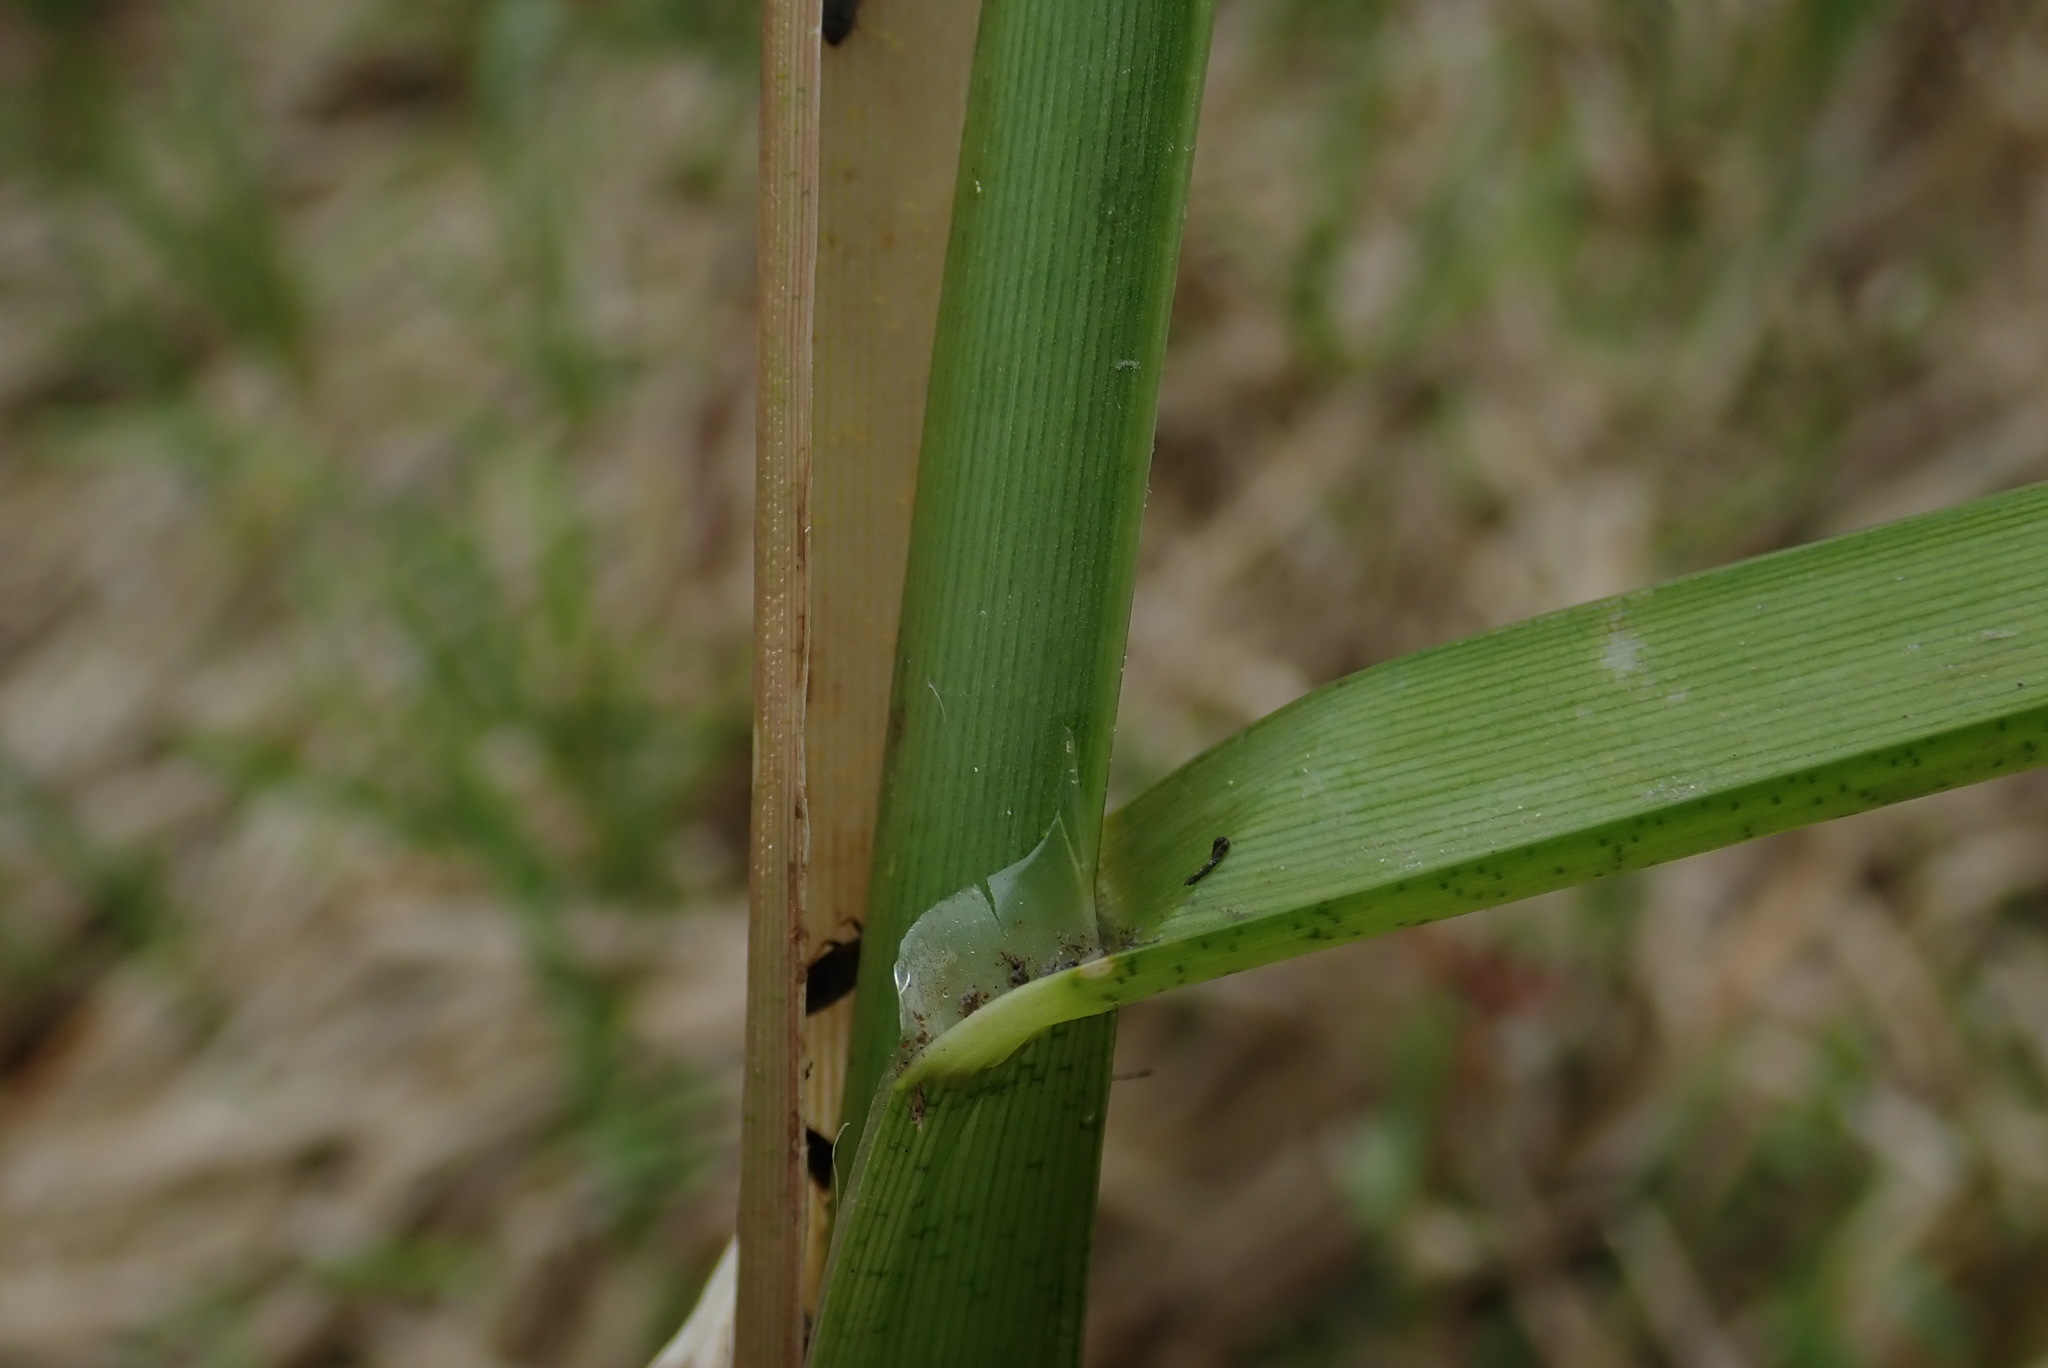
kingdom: Plantae
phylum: Tracheophyta
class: Liliopsida
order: Poales
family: Poaceae
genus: Glyceria
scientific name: Glyceria maxima
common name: Reed mannagrass
